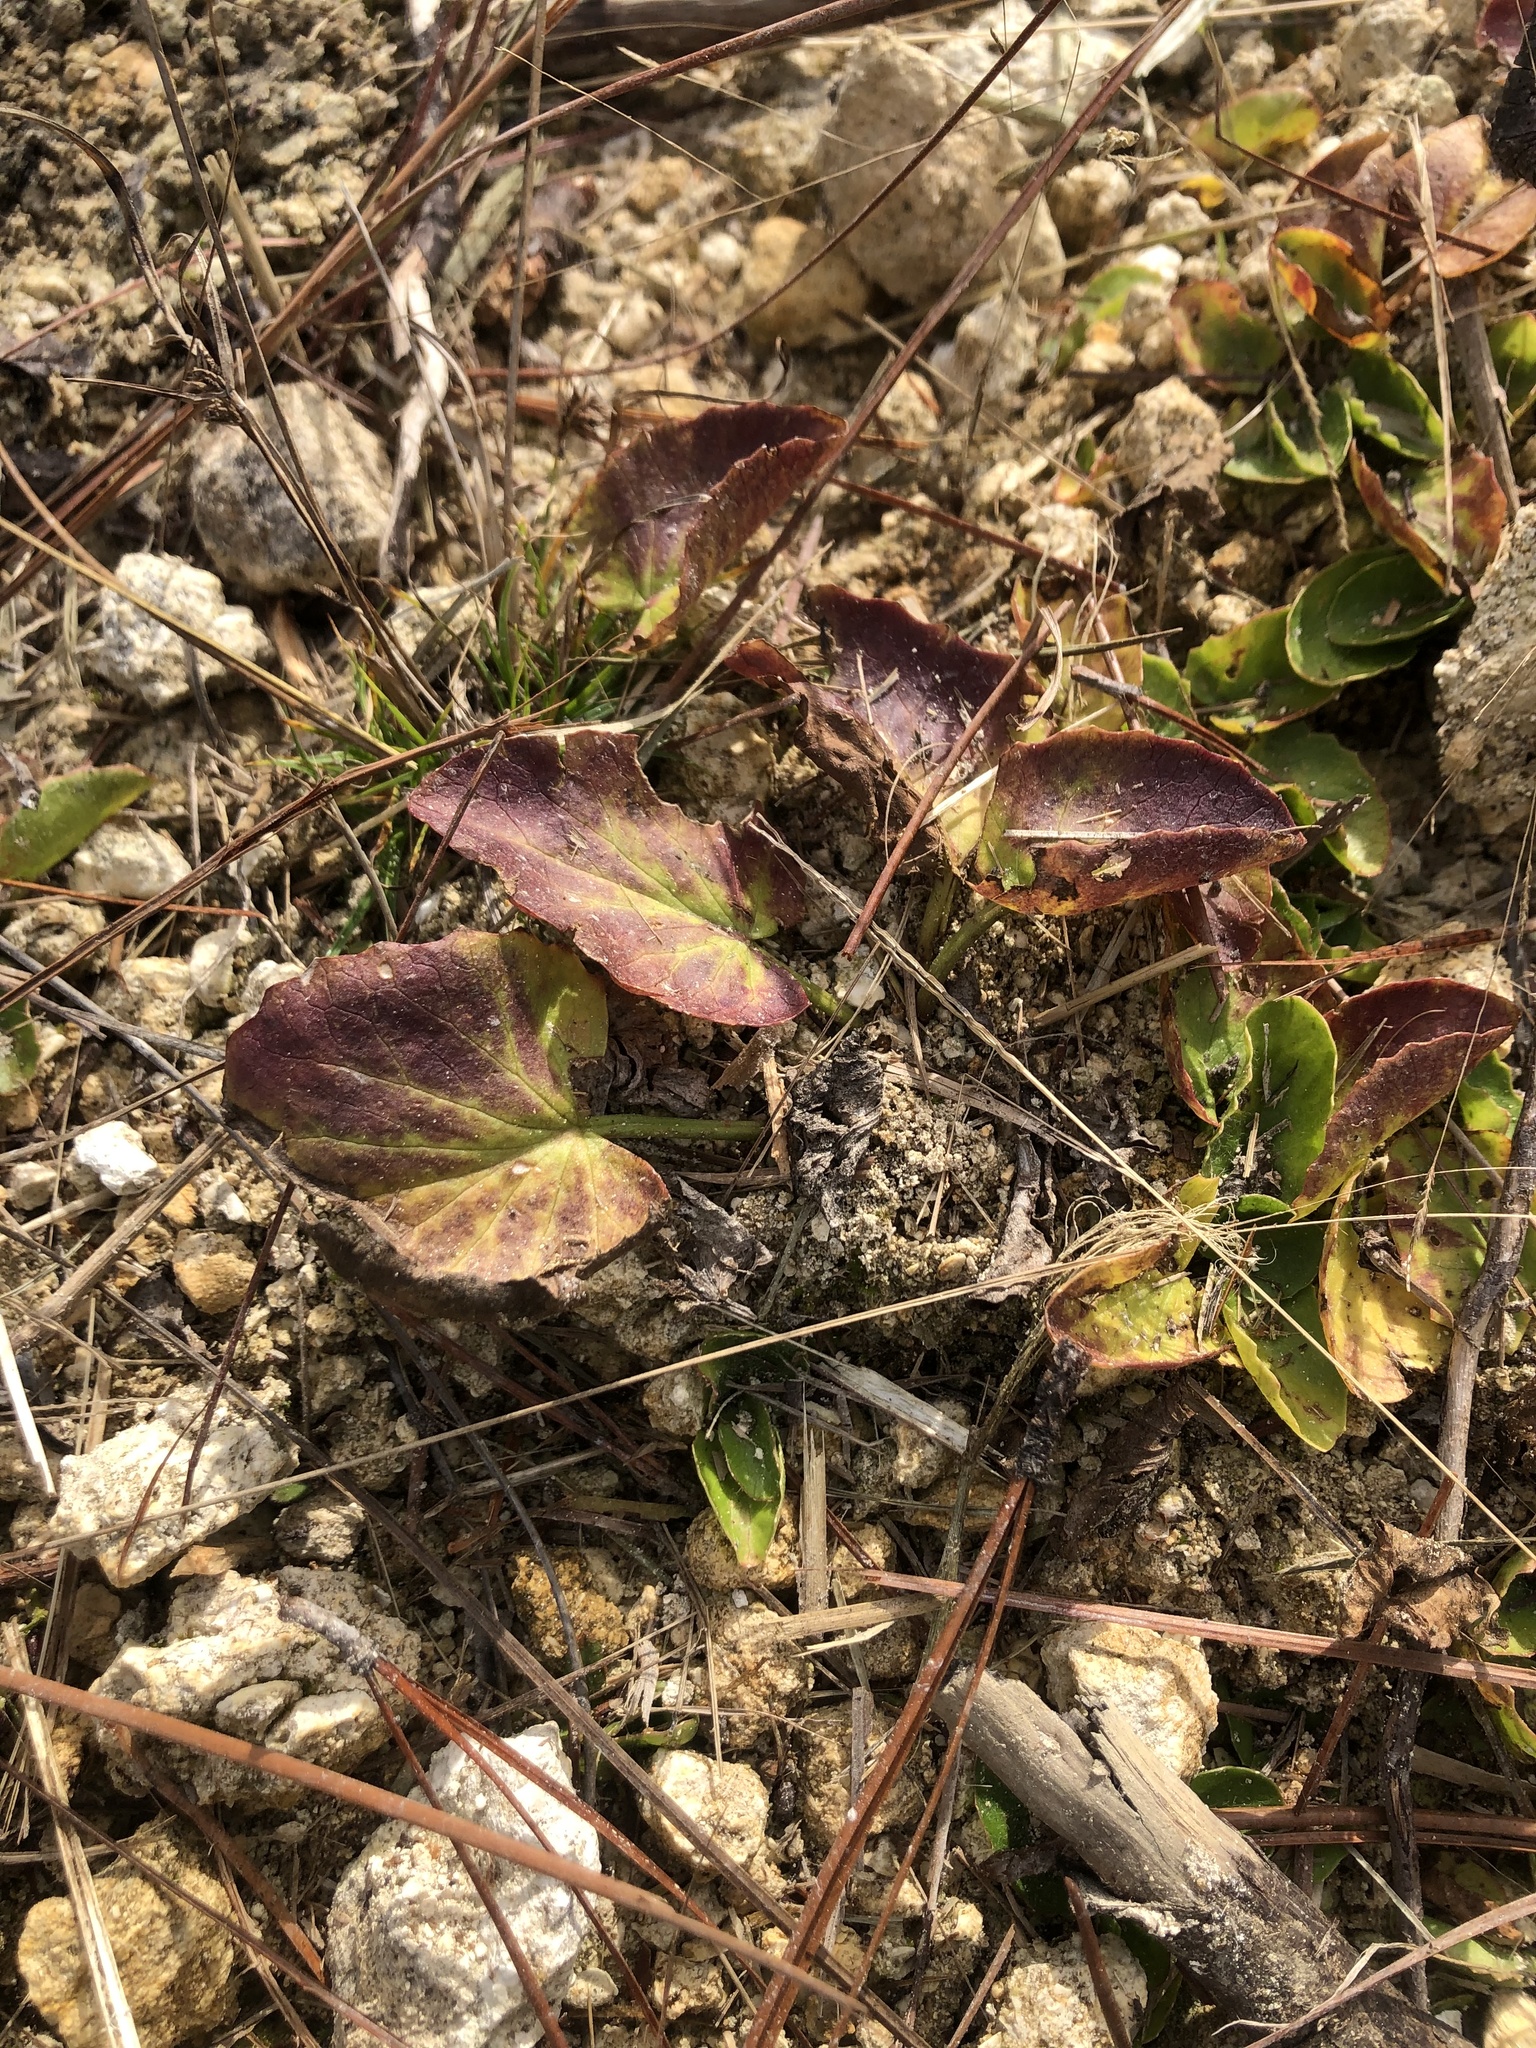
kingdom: Plantae
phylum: Tracheophyta
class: Magnoliopsida
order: Apiales
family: Apiaceae
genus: Centella
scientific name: Centella erecta
